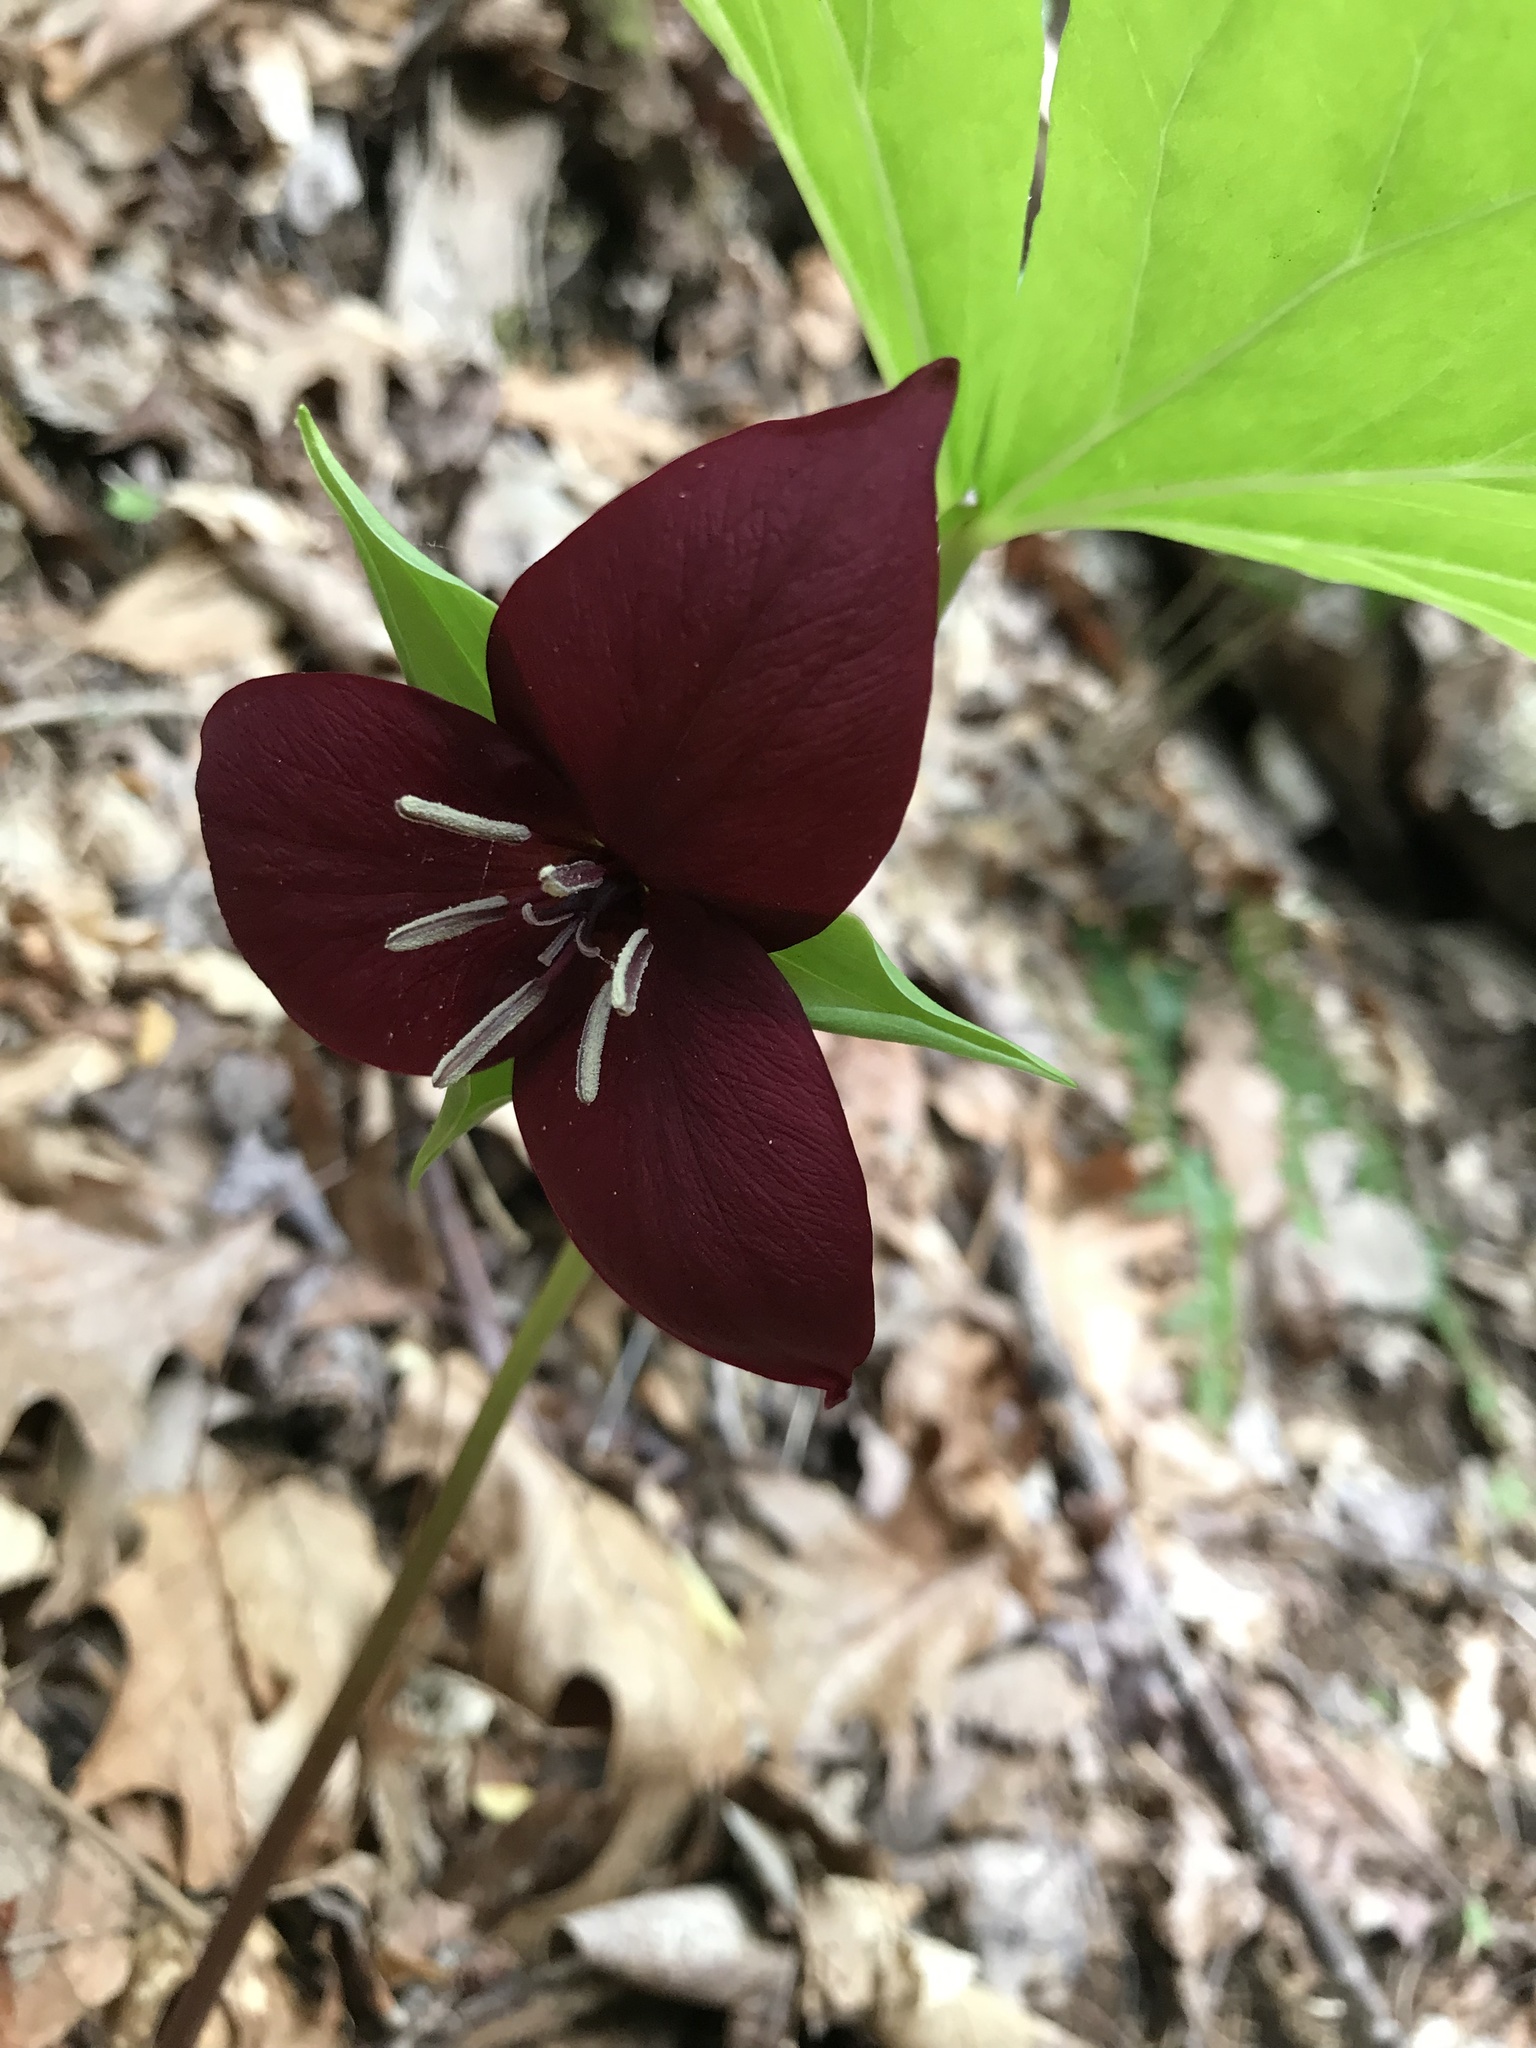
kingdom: Plantae
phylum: Tracheophyta
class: Liliopsida
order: Liliales
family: Melanthiaceae
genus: Trillium
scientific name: Trillium vaseyi
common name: Sweet trillium
